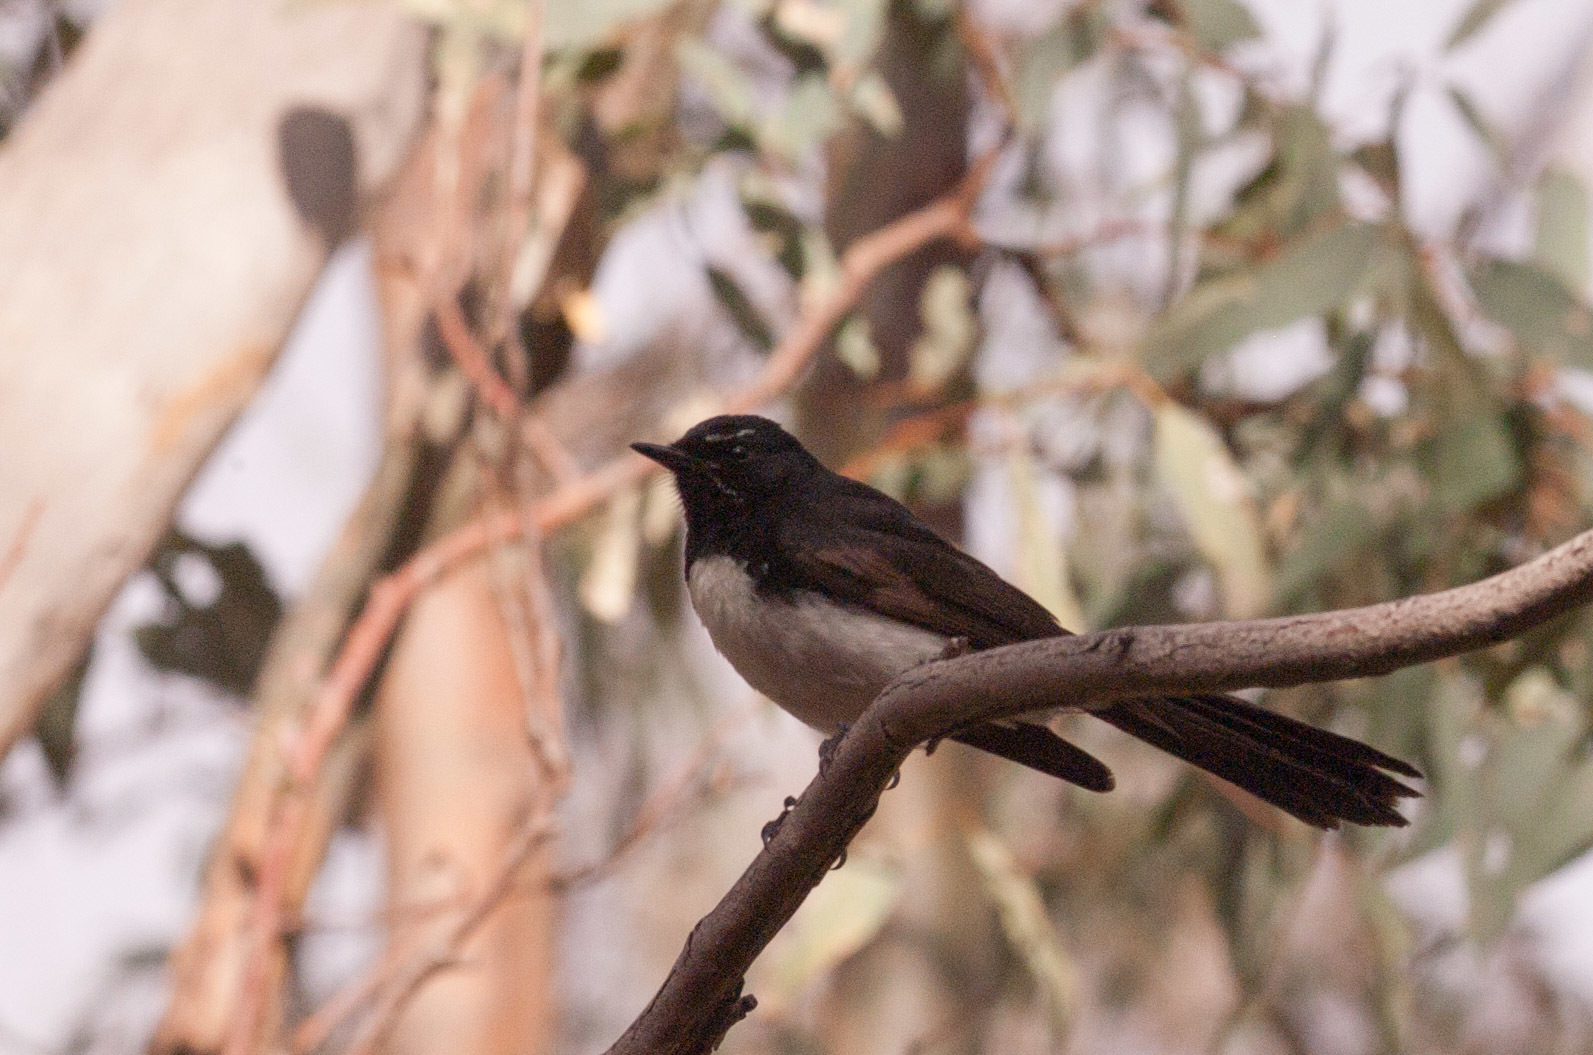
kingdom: Animalia
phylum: Chordata
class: Aves
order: Passeriformes
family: Rhipiduridae
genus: Rhipidura
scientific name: Rhipidura leucophrys
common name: Willie wagtail
